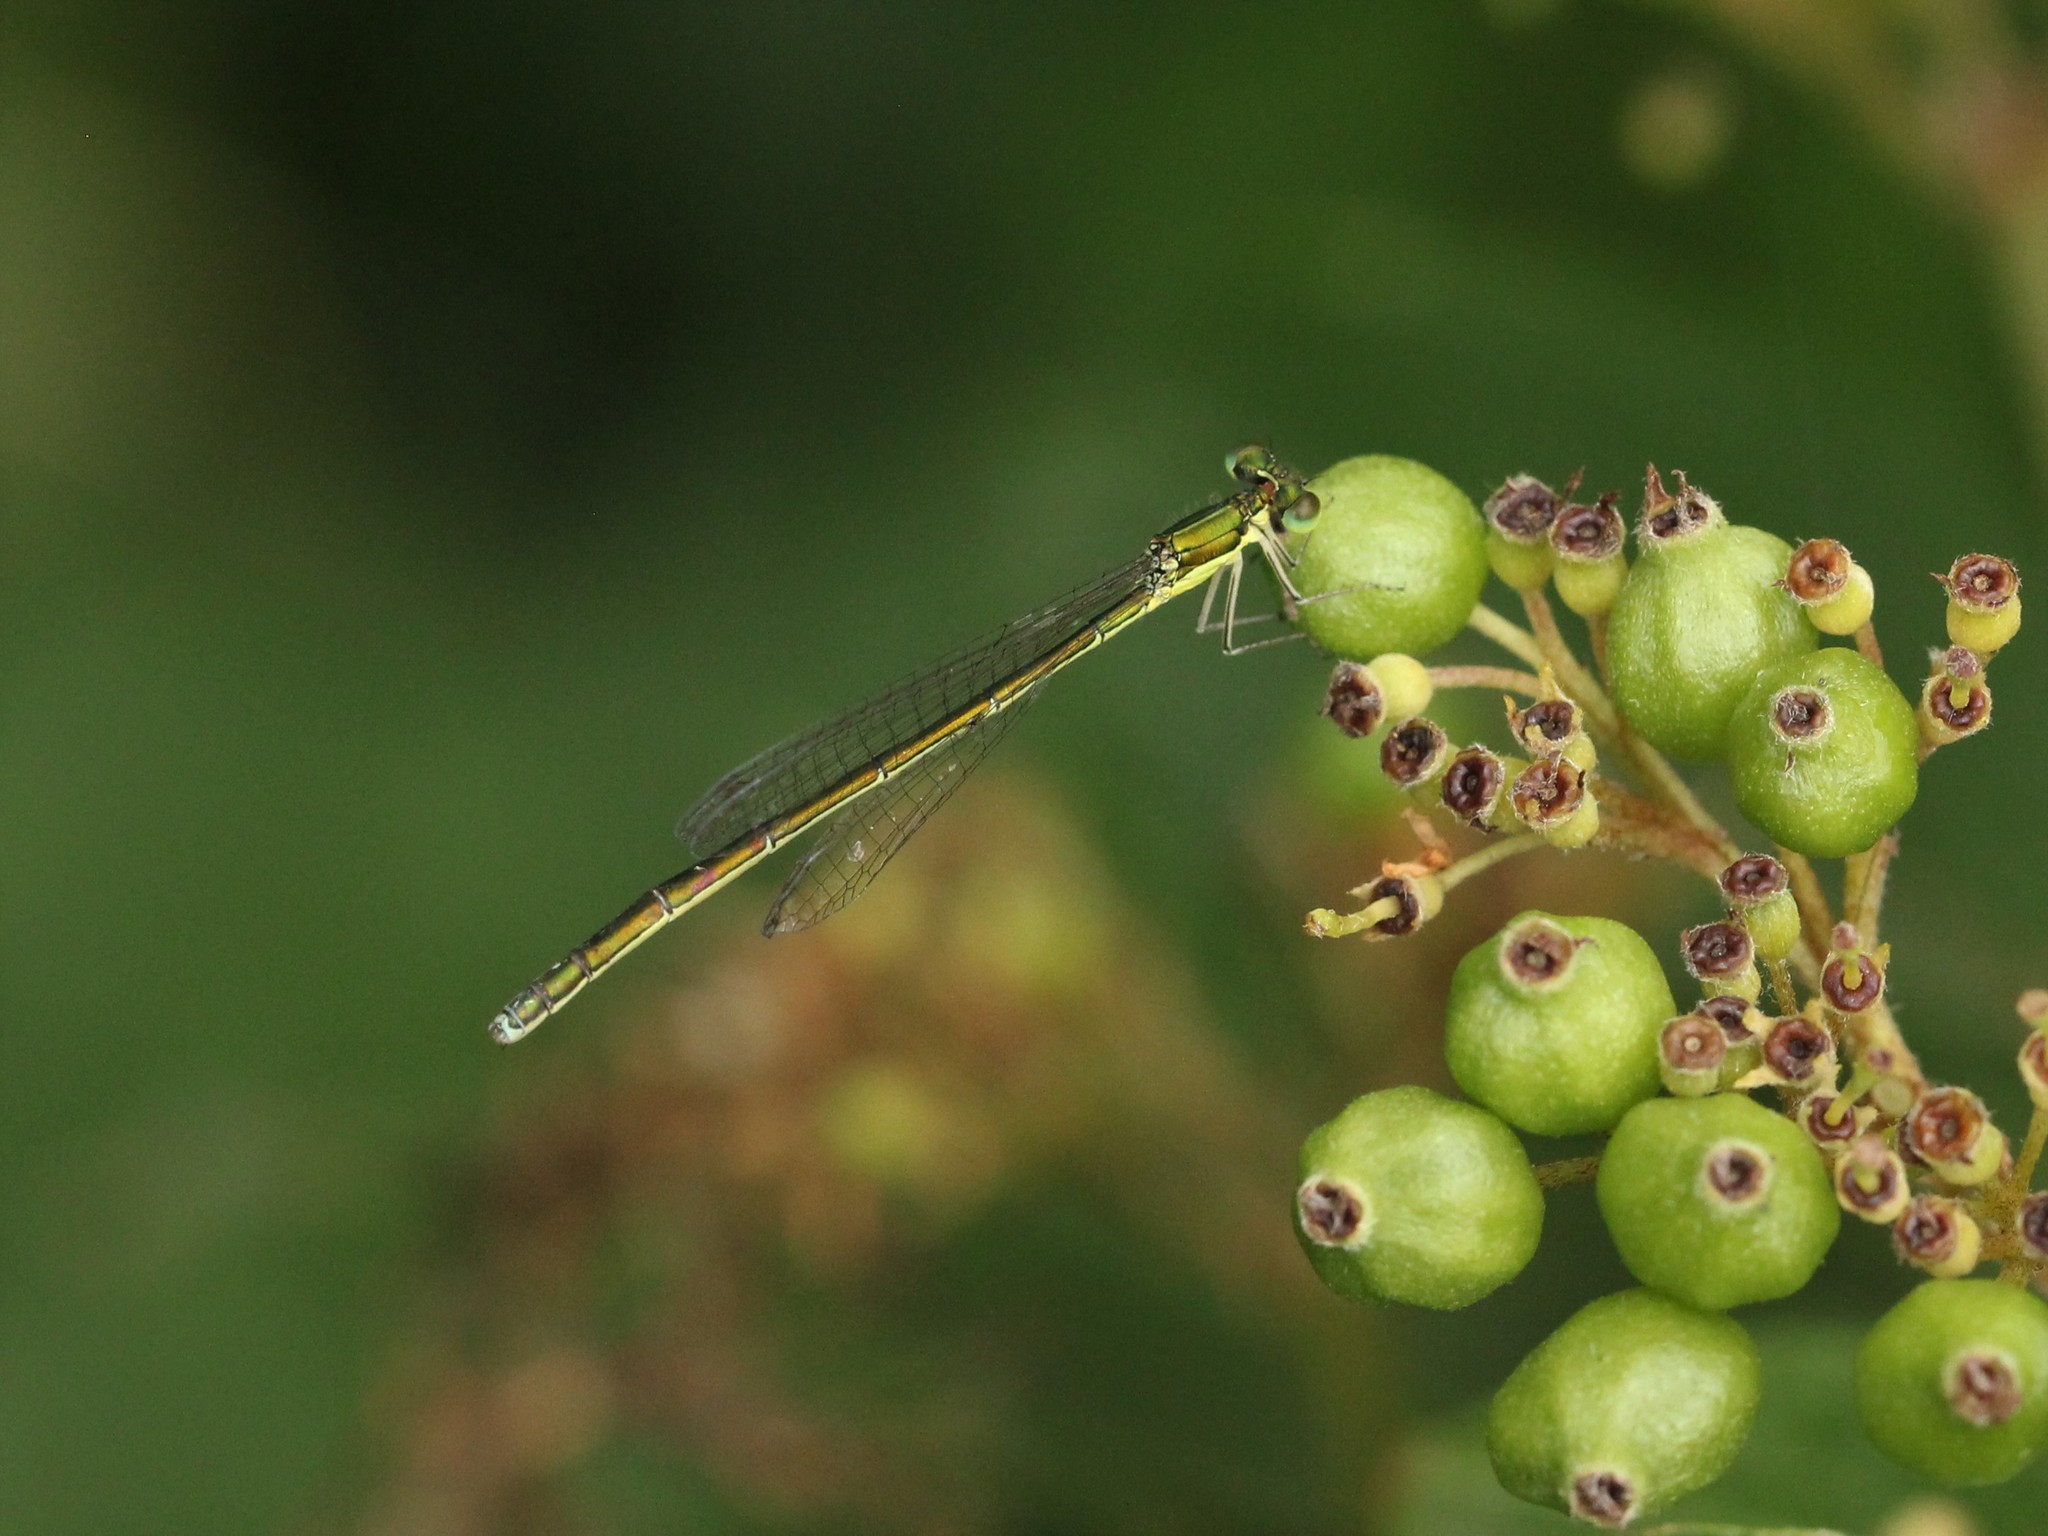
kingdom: Animalia
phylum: Arthropoda
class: Insecta
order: Odonata
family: Coenagrionidae
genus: Nehalennia
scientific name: Nehalennia irene
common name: Sedge sprite
